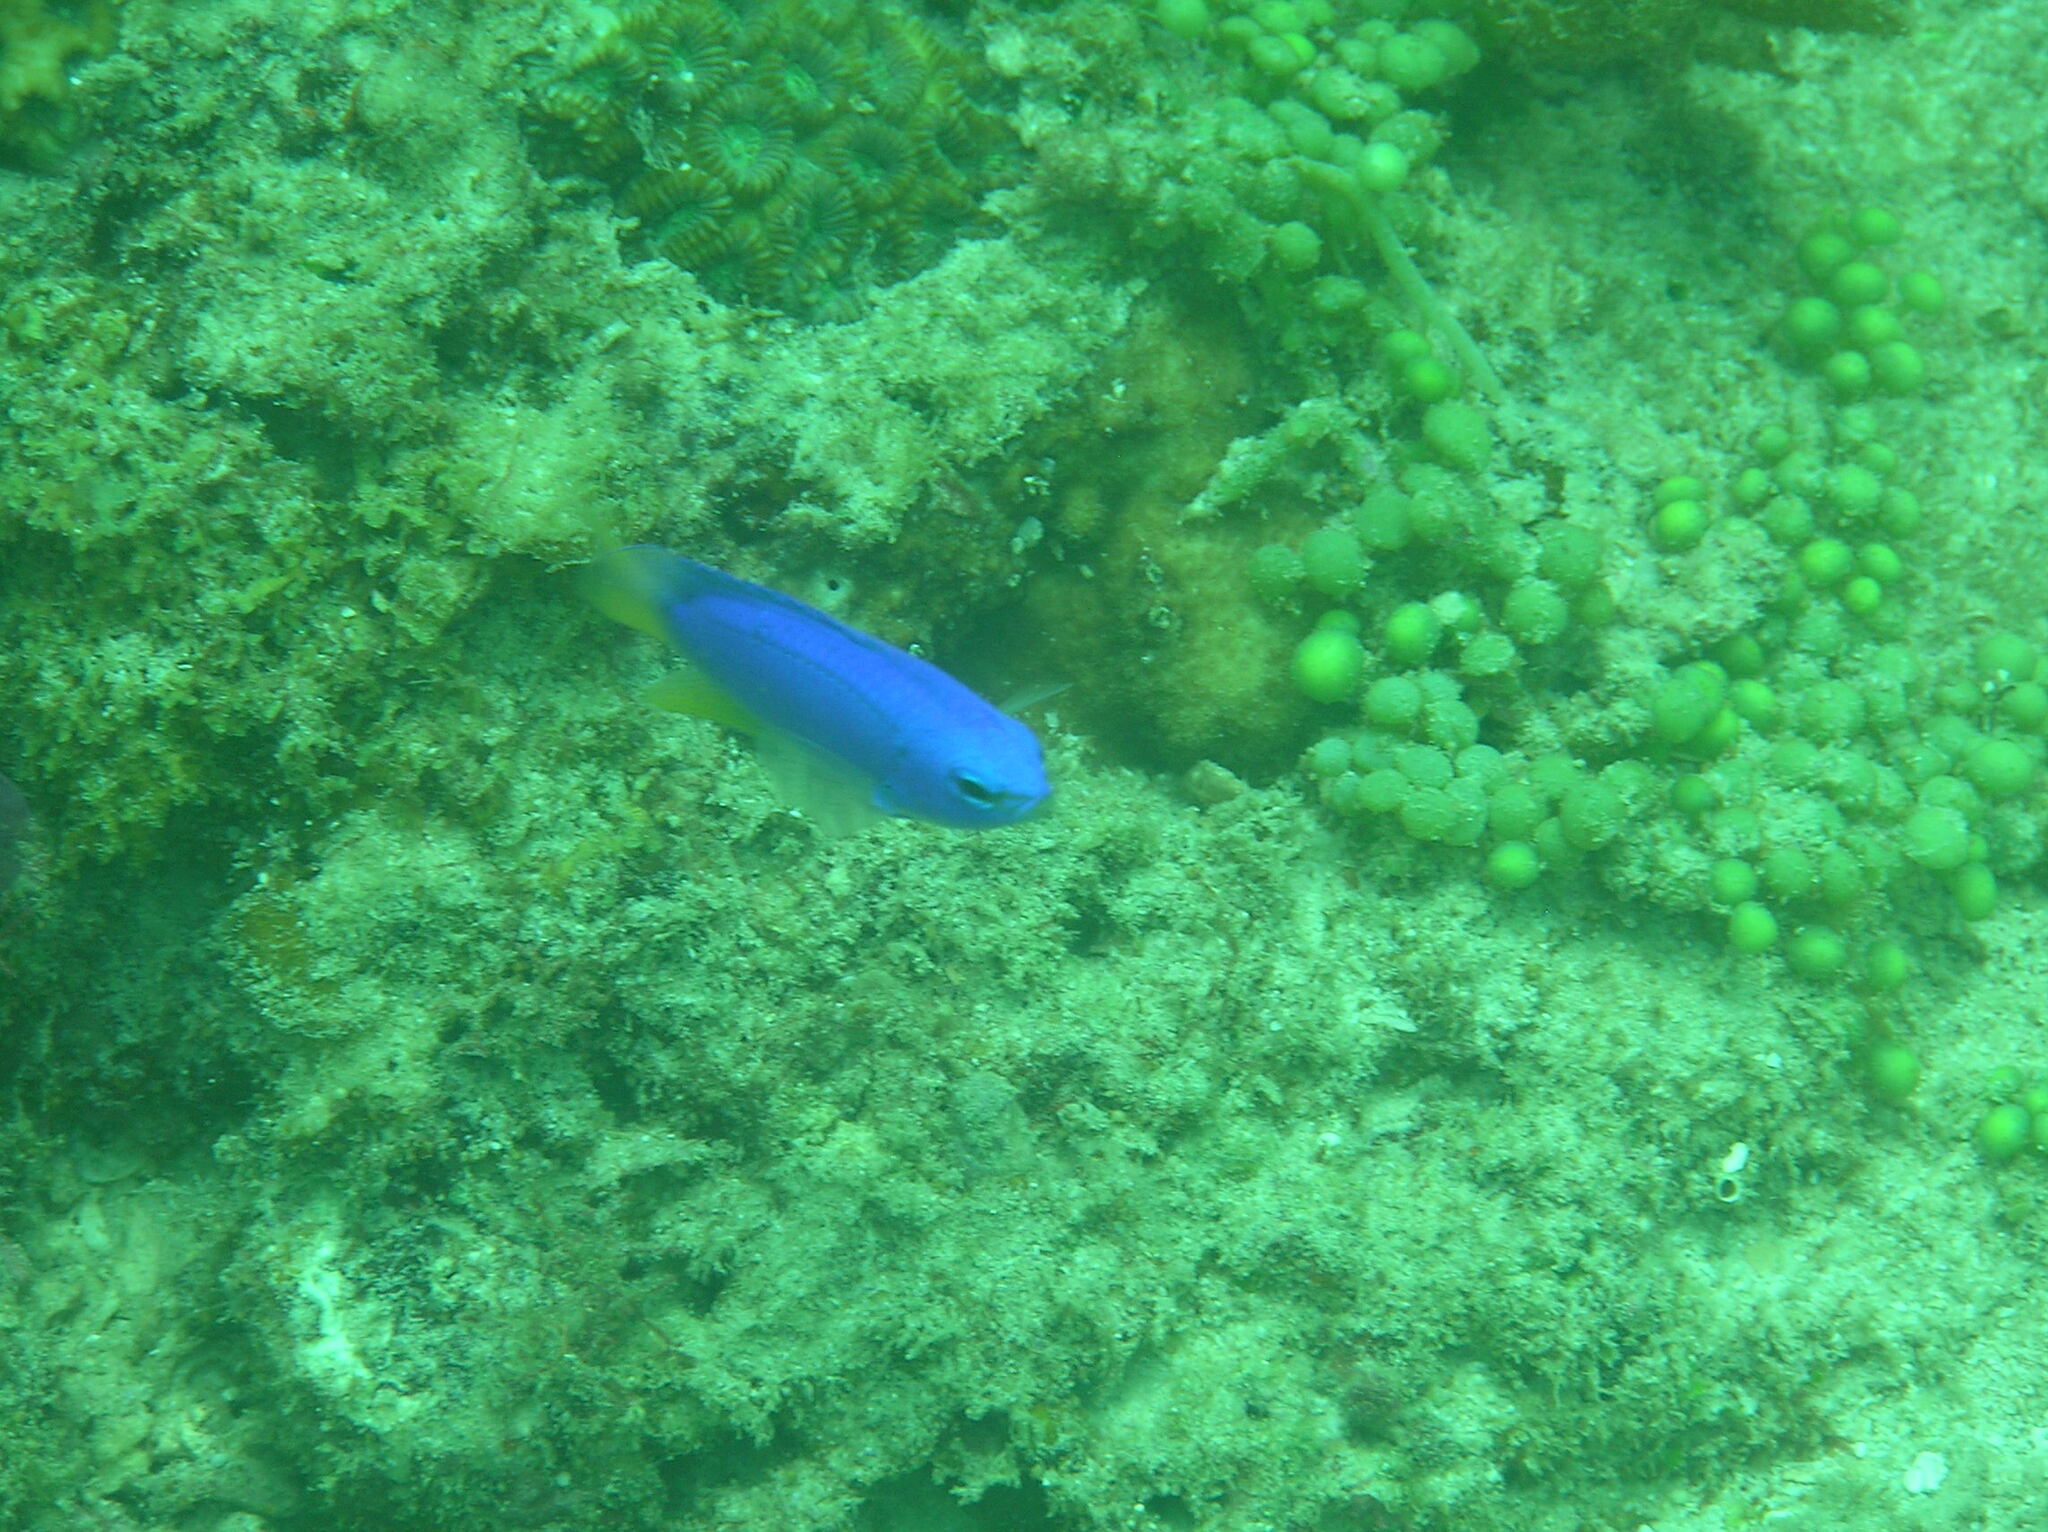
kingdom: Animalia
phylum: Chordata
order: Perciformes
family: Pomacentridae
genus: Pomacentrus
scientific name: Pomacentrus coelestis
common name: Neon damsel
